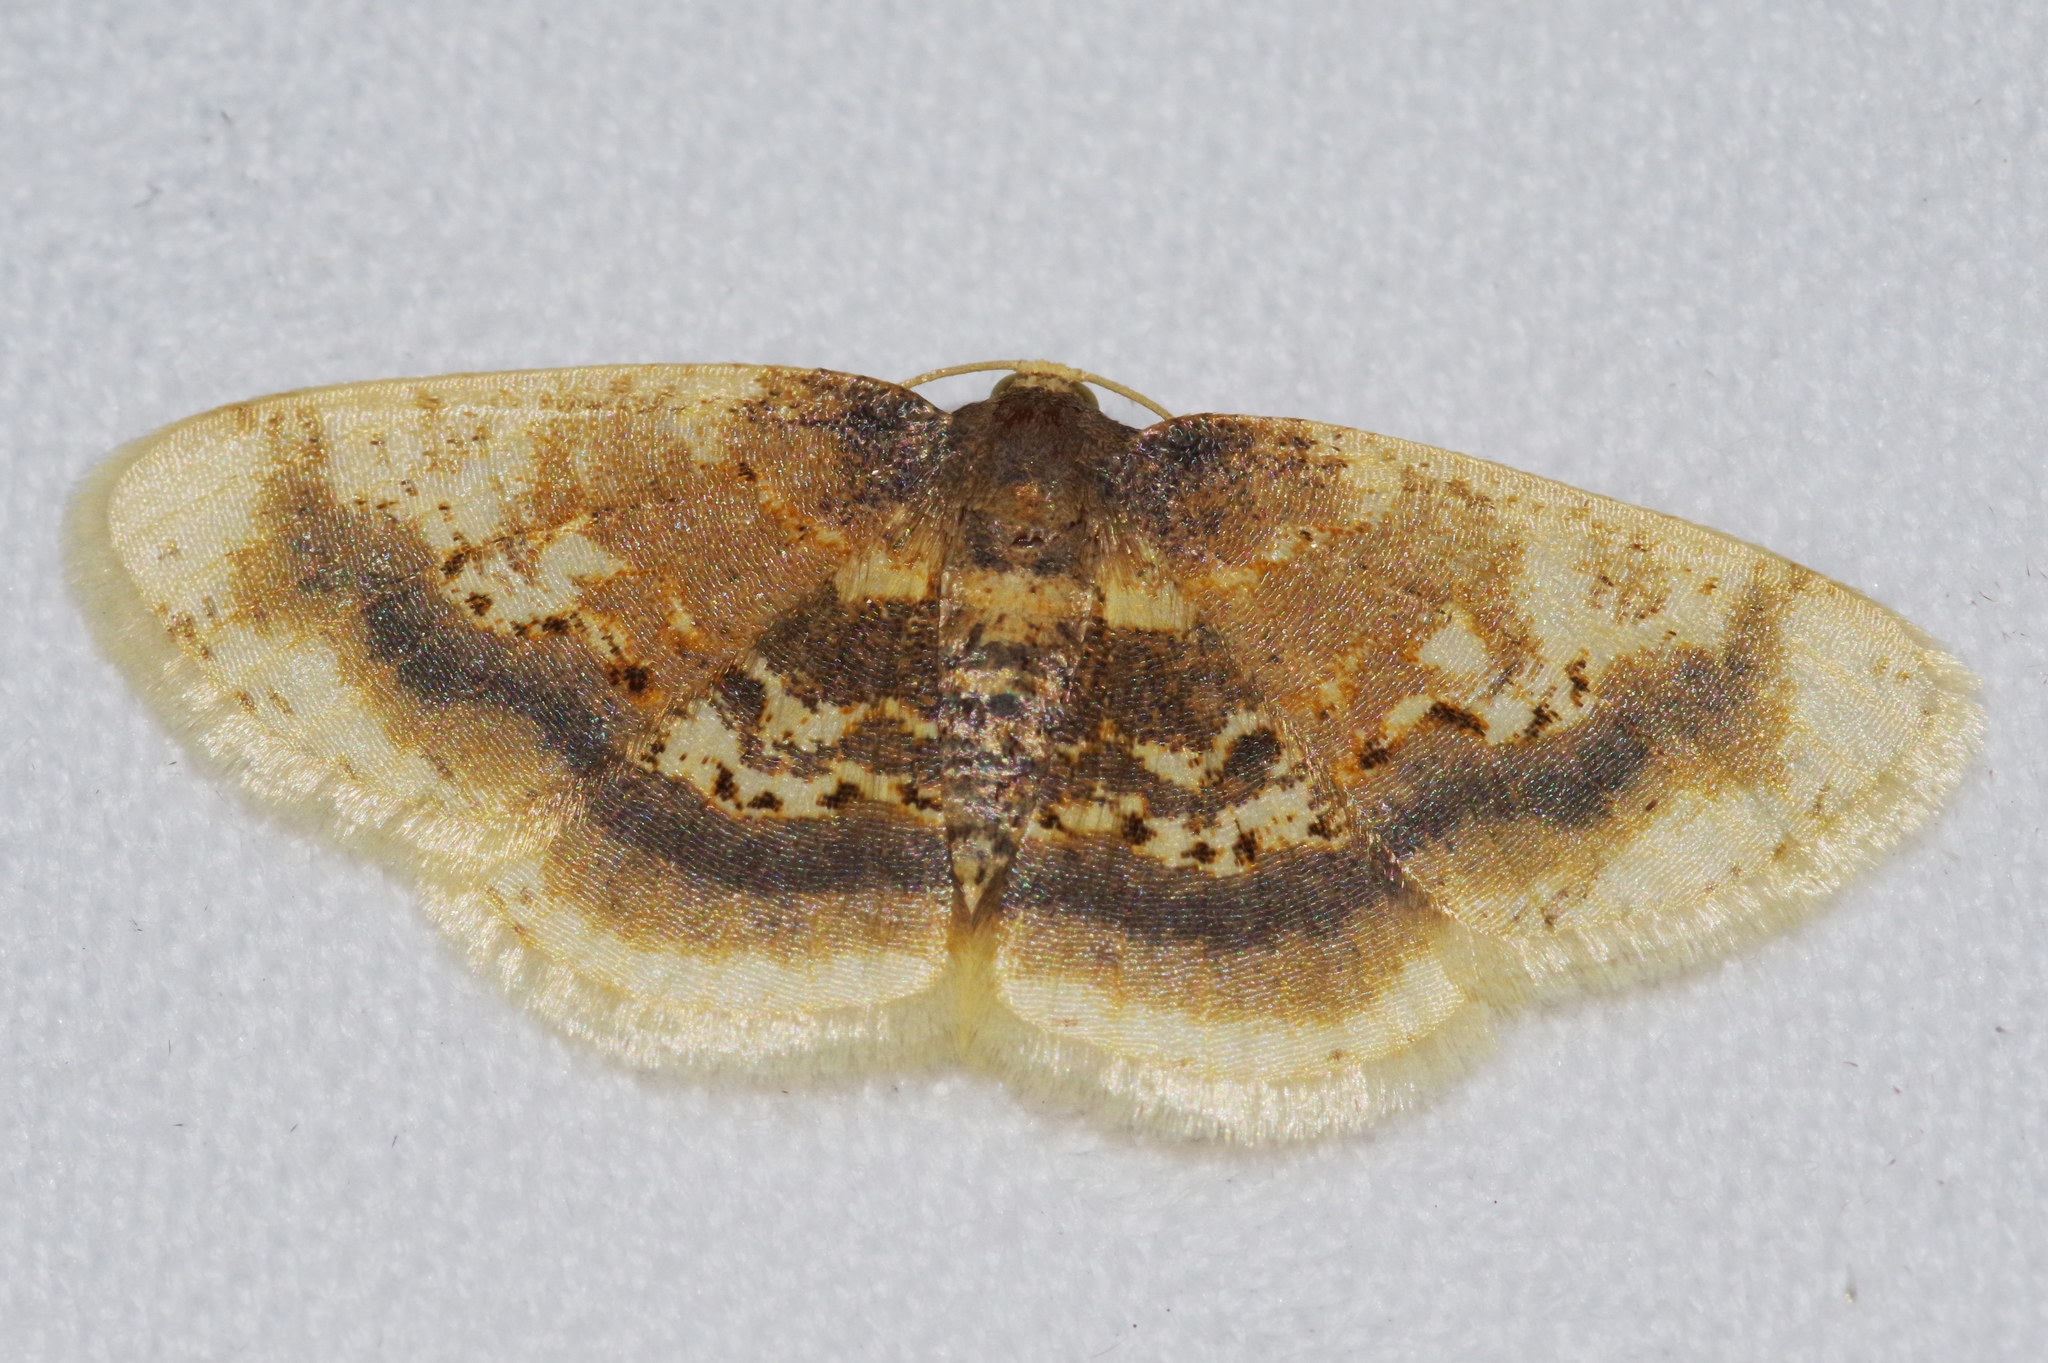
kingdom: Animalia
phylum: Arthropoda
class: Insecta
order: Lepidoptera
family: Geometridae
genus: Ninodes
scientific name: Ninodes watanabei
